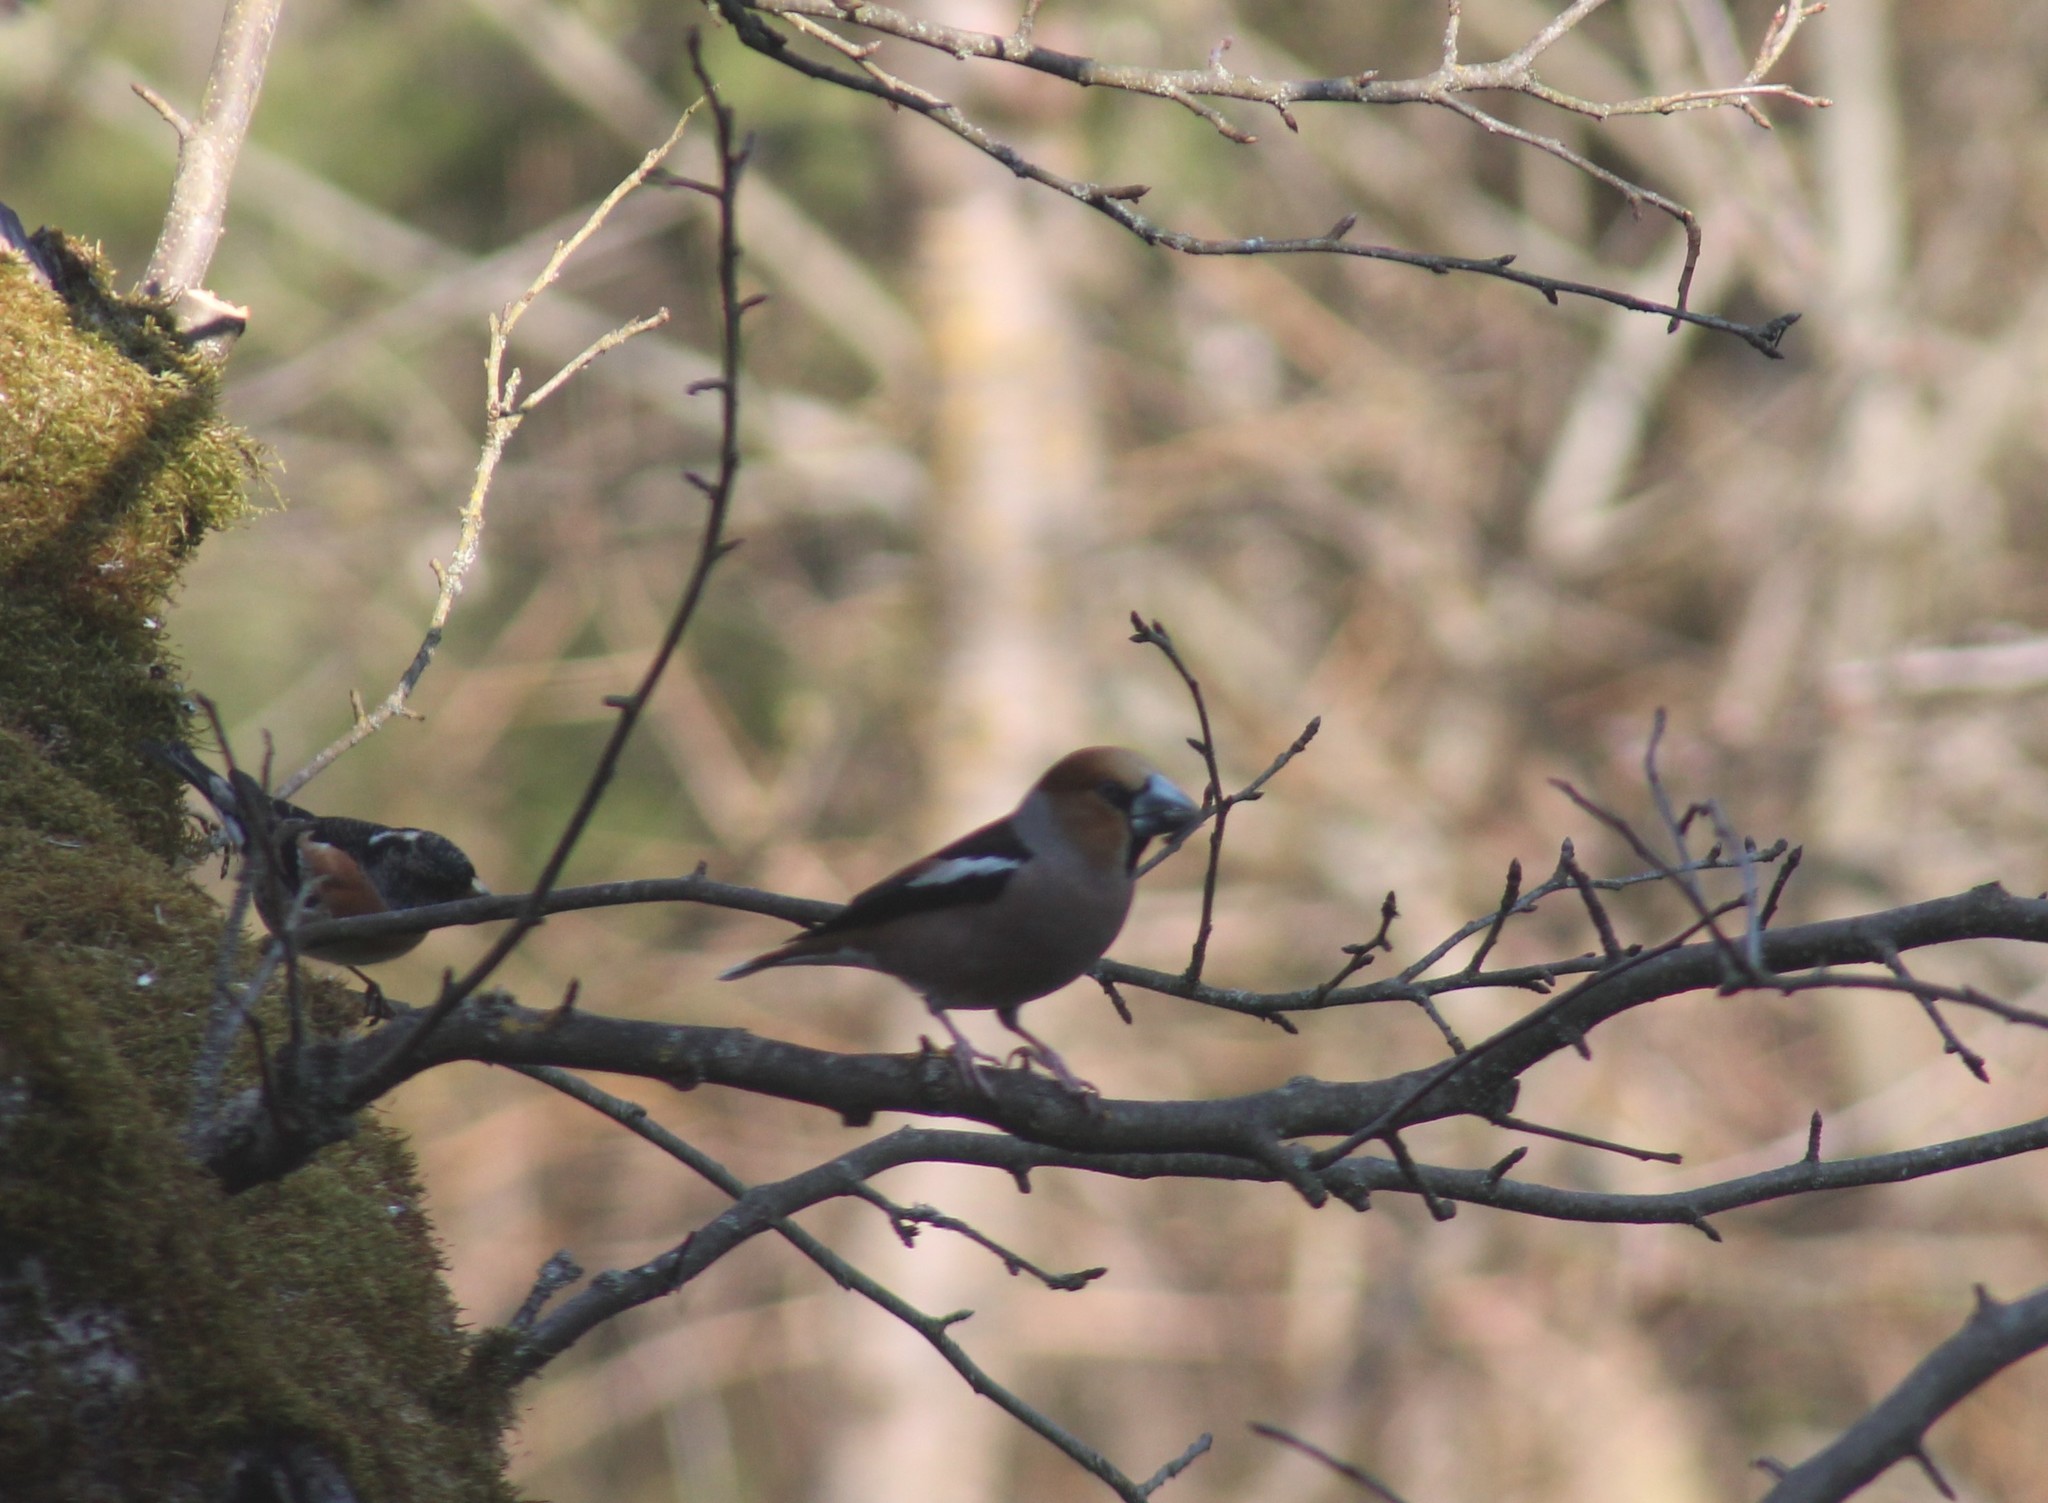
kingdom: Animalia
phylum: Chordata
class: Aves
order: Passeriformes
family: Fringillidae
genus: Coccothraustes
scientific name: Coccothraustes coccothraustes
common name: Hawfinch
